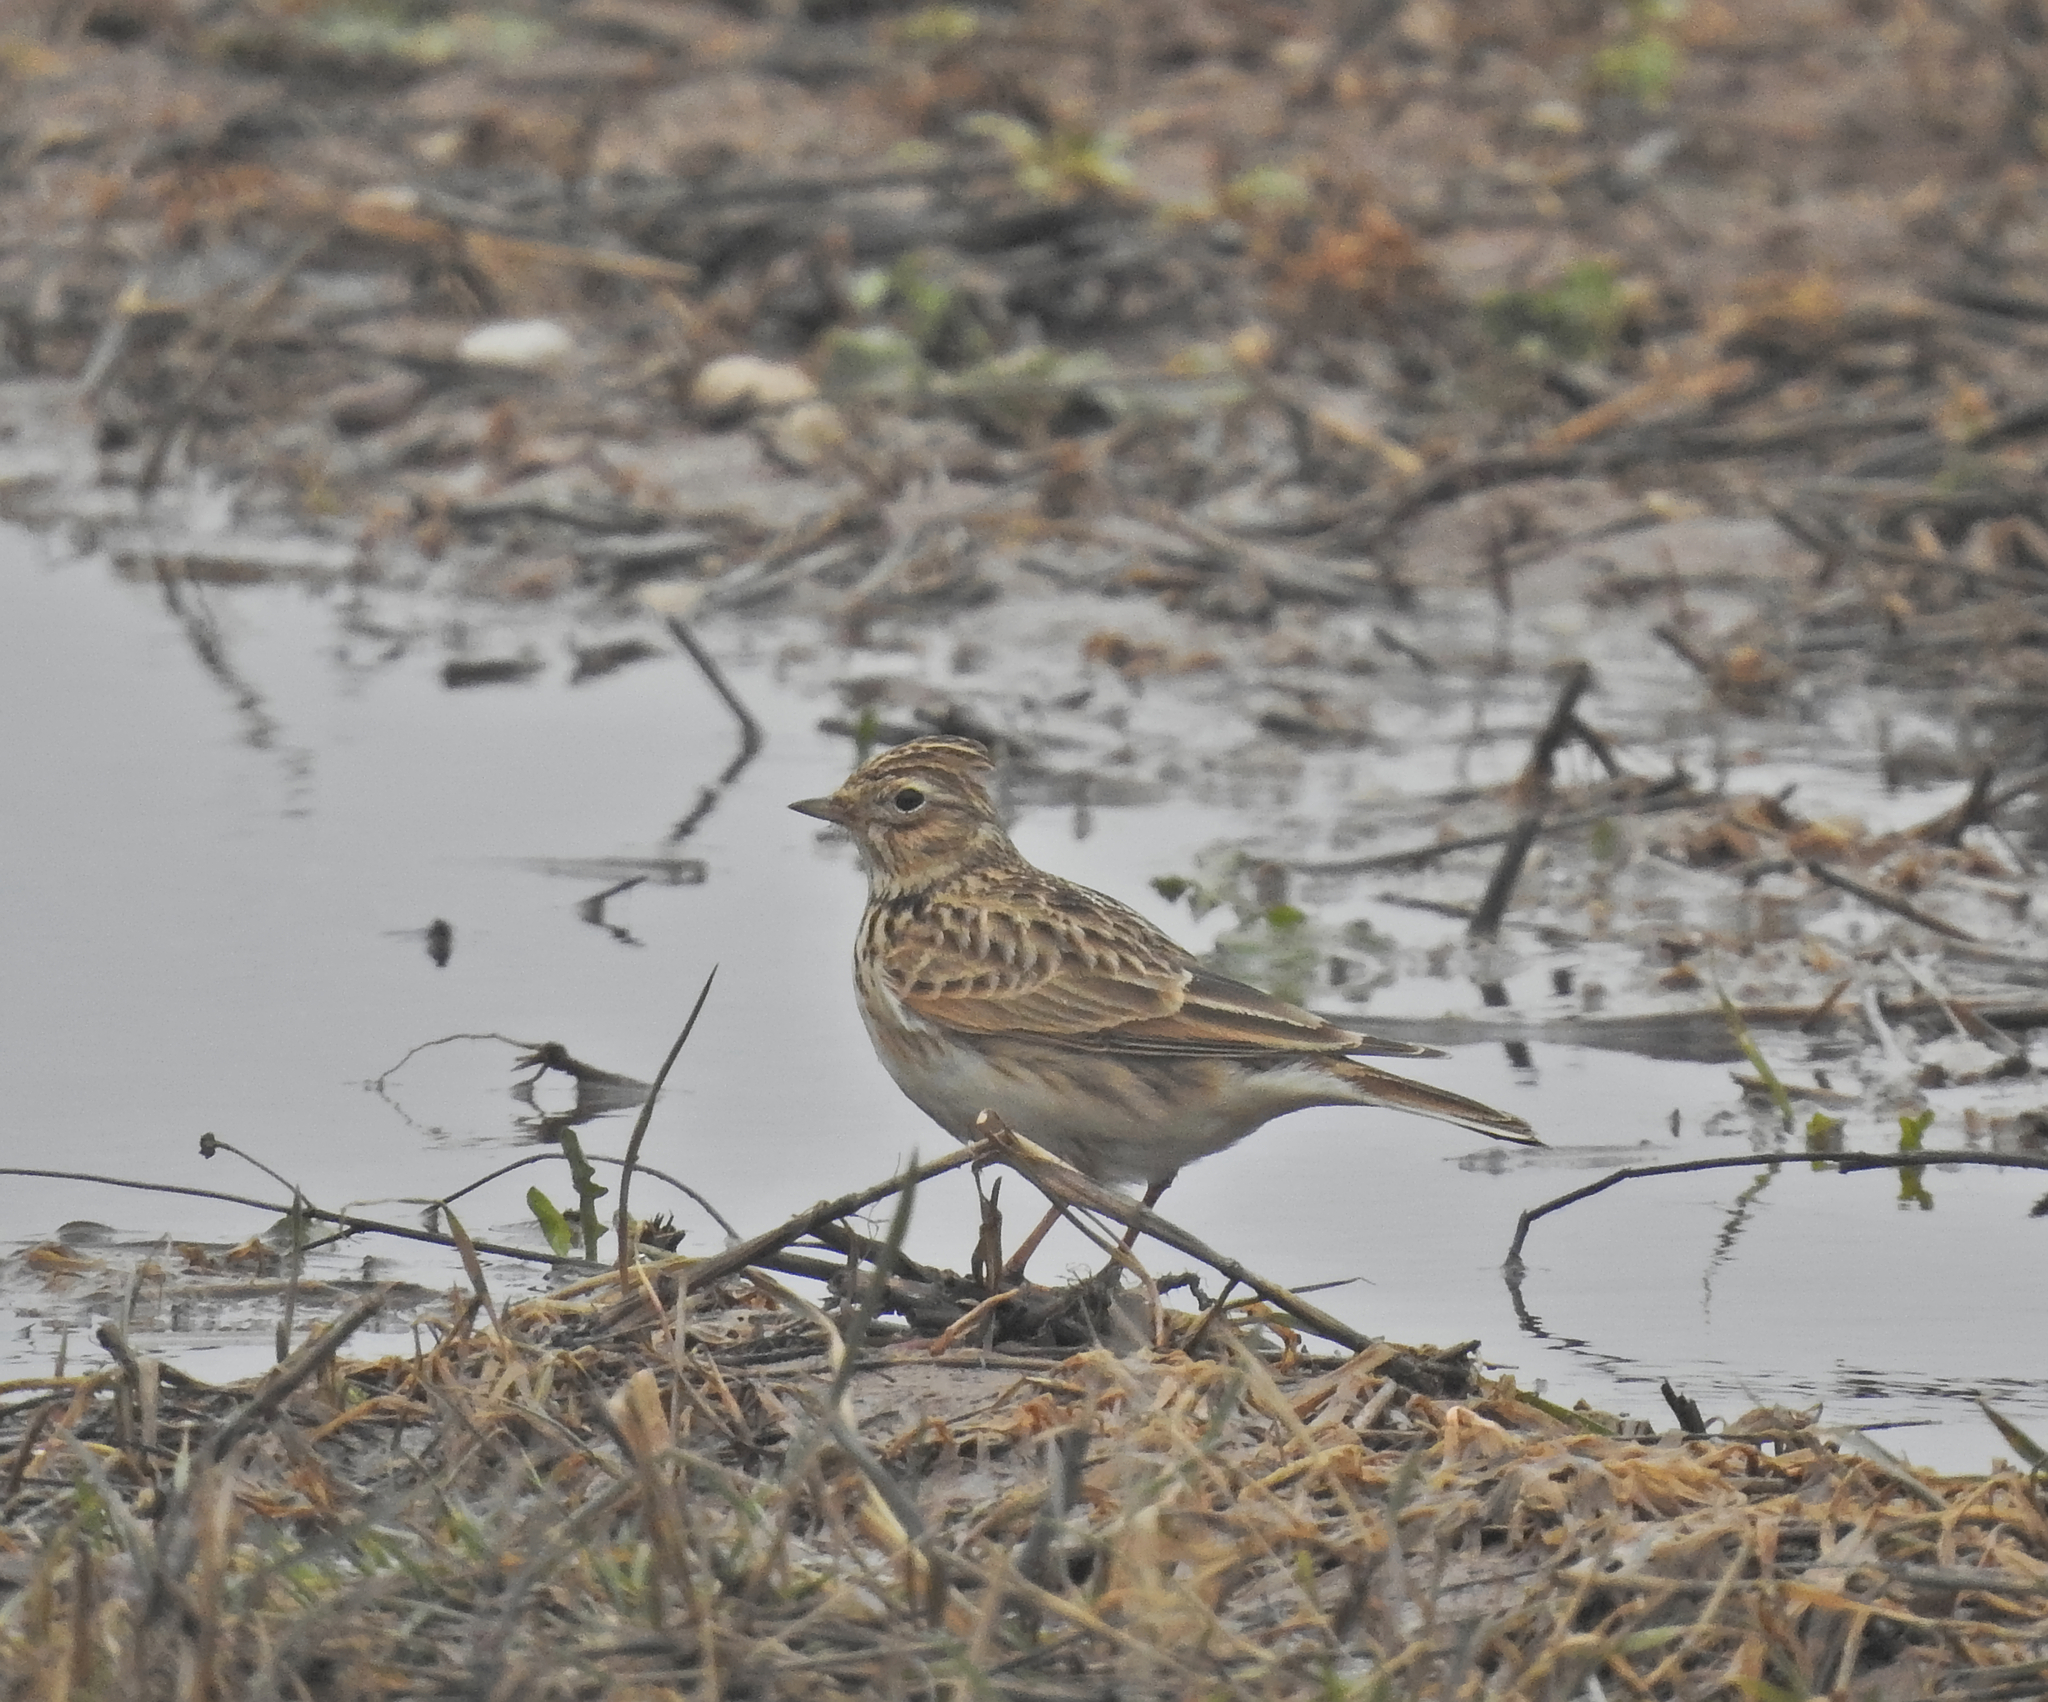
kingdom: Animalia
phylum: Chordata
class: Aves
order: Passeriformes
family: Alaudidae
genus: Alauda
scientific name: Alauda arvensis
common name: Eurasian skylark
